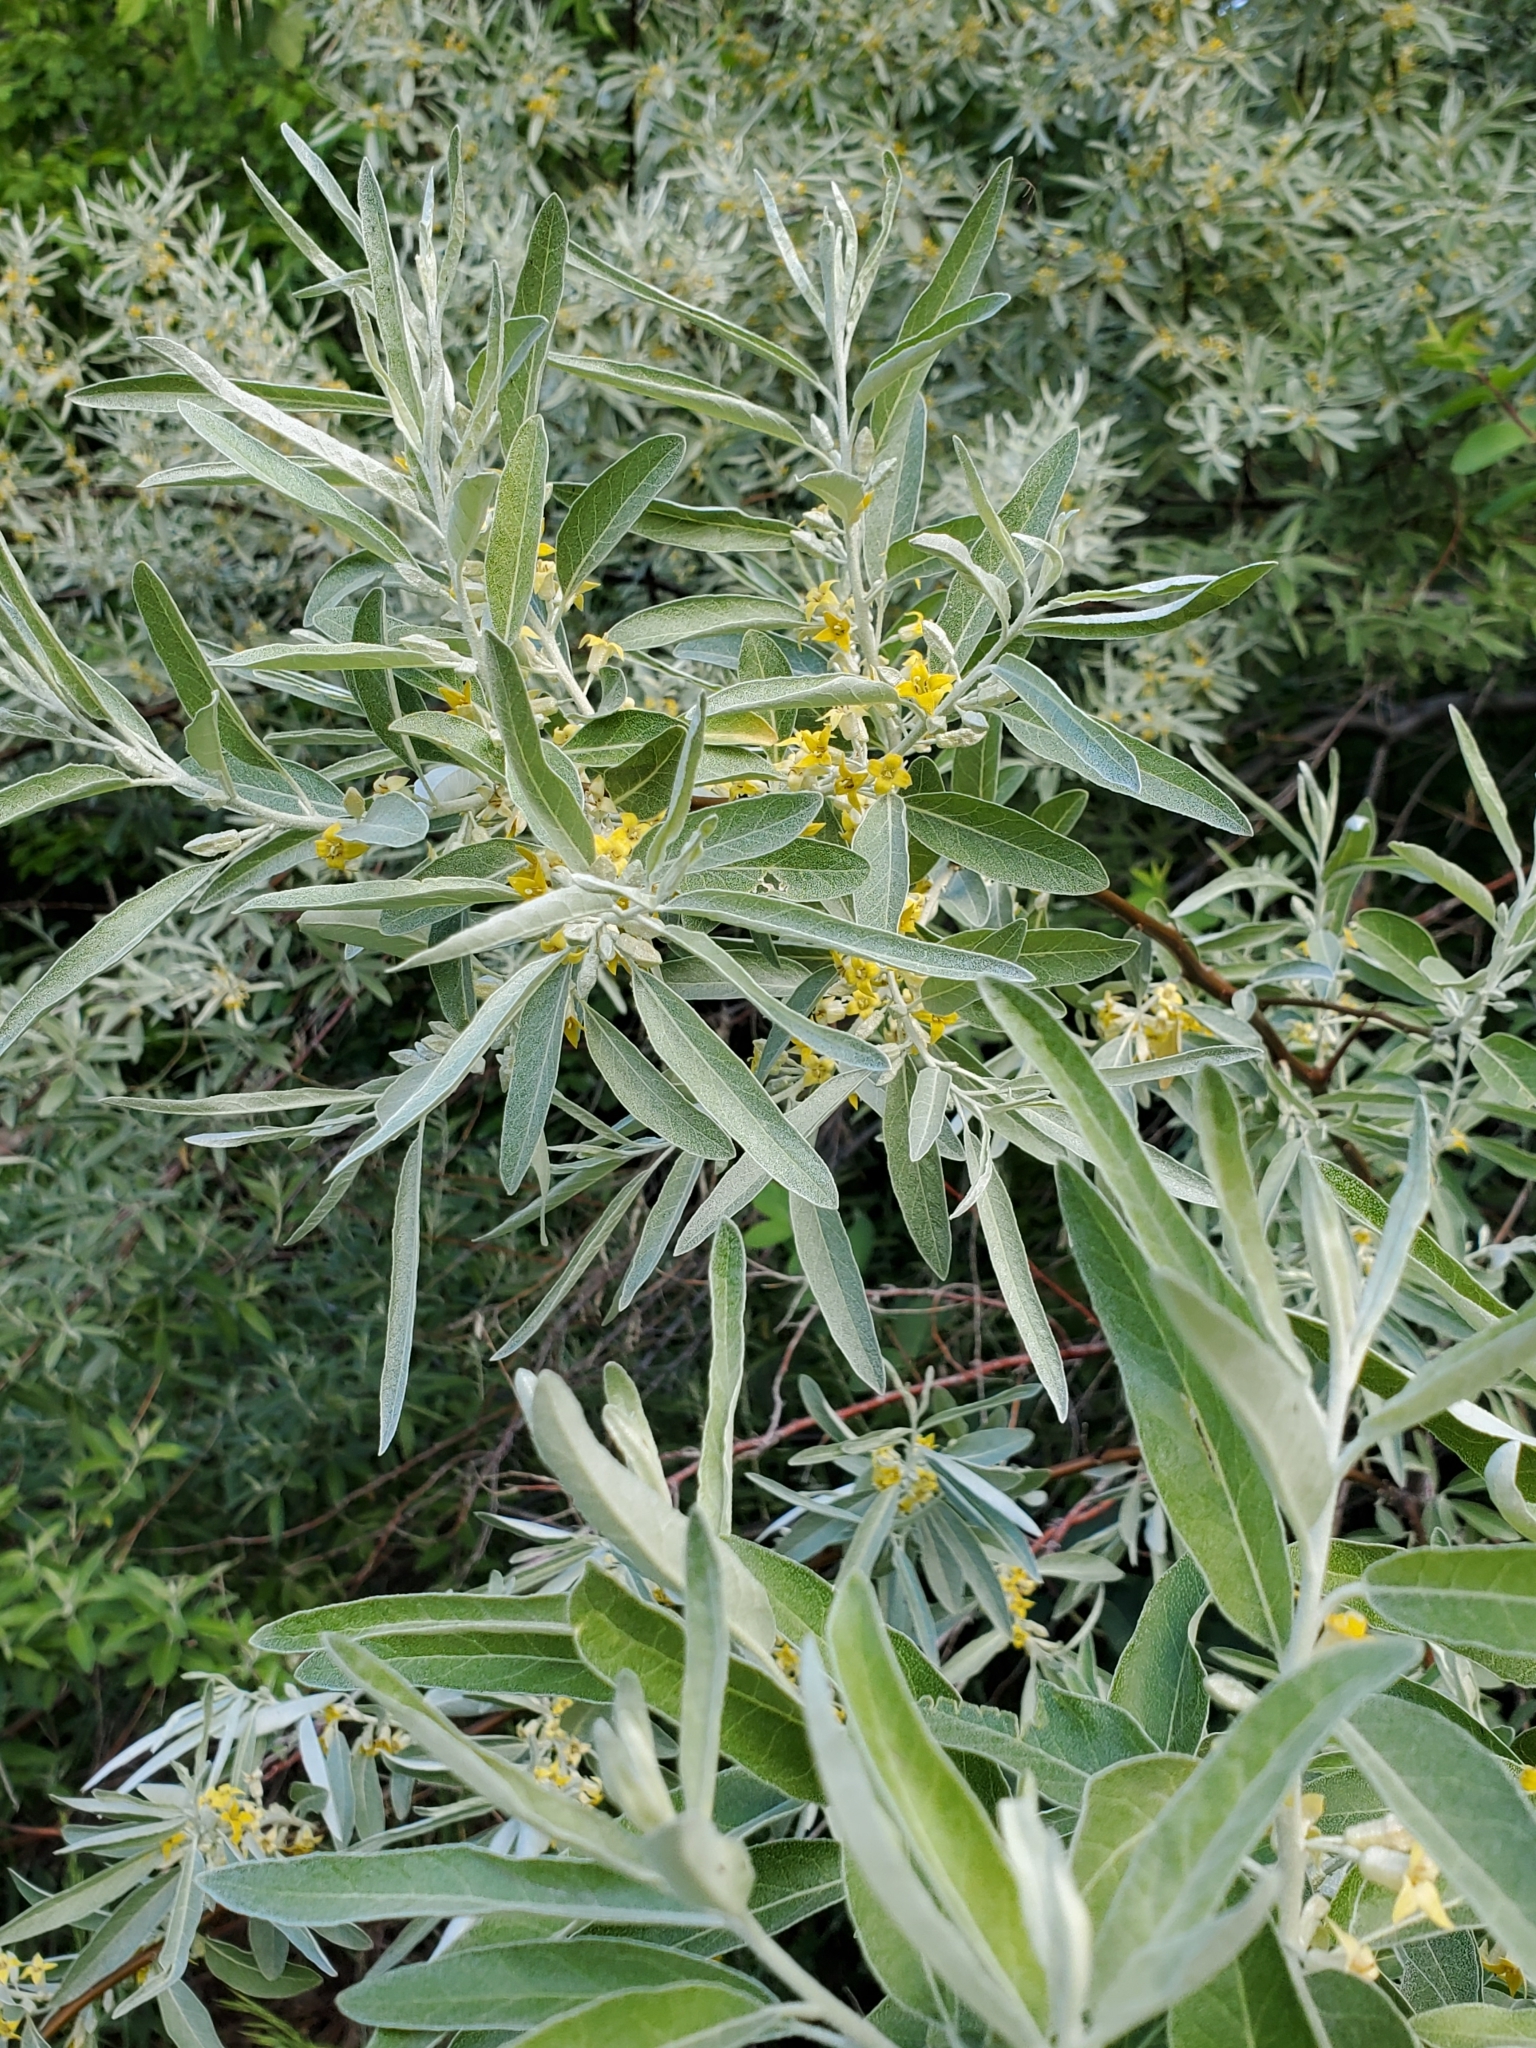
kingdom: Plantae
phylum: Tracheophyta
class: Magnoliopsida
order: Rosales
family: Elaeagnaceae
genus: Elaeagnus
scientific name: Elaeagnus angustifolia
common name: Russian olive
